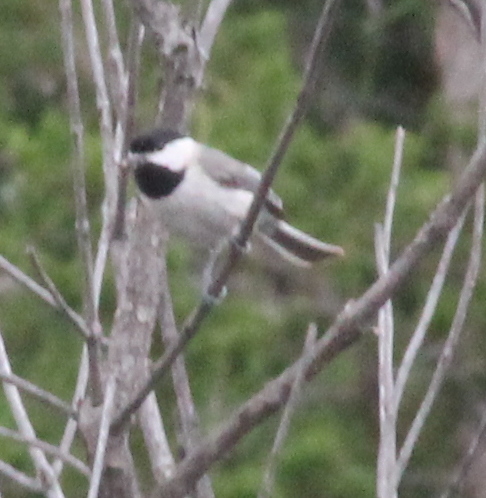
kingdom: Animalia
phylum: Chordata
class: Aves
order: Passeriformes
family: Paridae
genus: Poecile
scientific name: Poecile carolinensis
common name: Carolina chickadee
